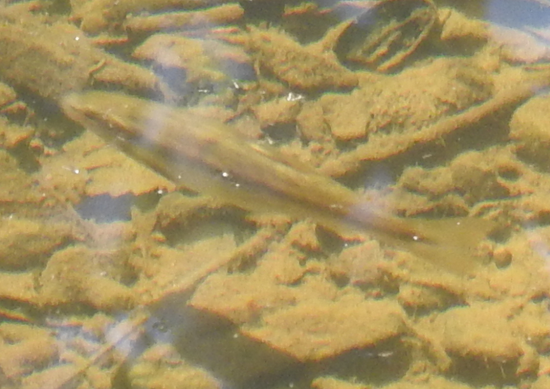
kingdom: Animalia
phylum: Chordata
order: Cypriniformes
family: Cyprinidae
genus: Rhinichthys
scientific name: Rhinichthys obtusus
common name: Western blacknose dace
